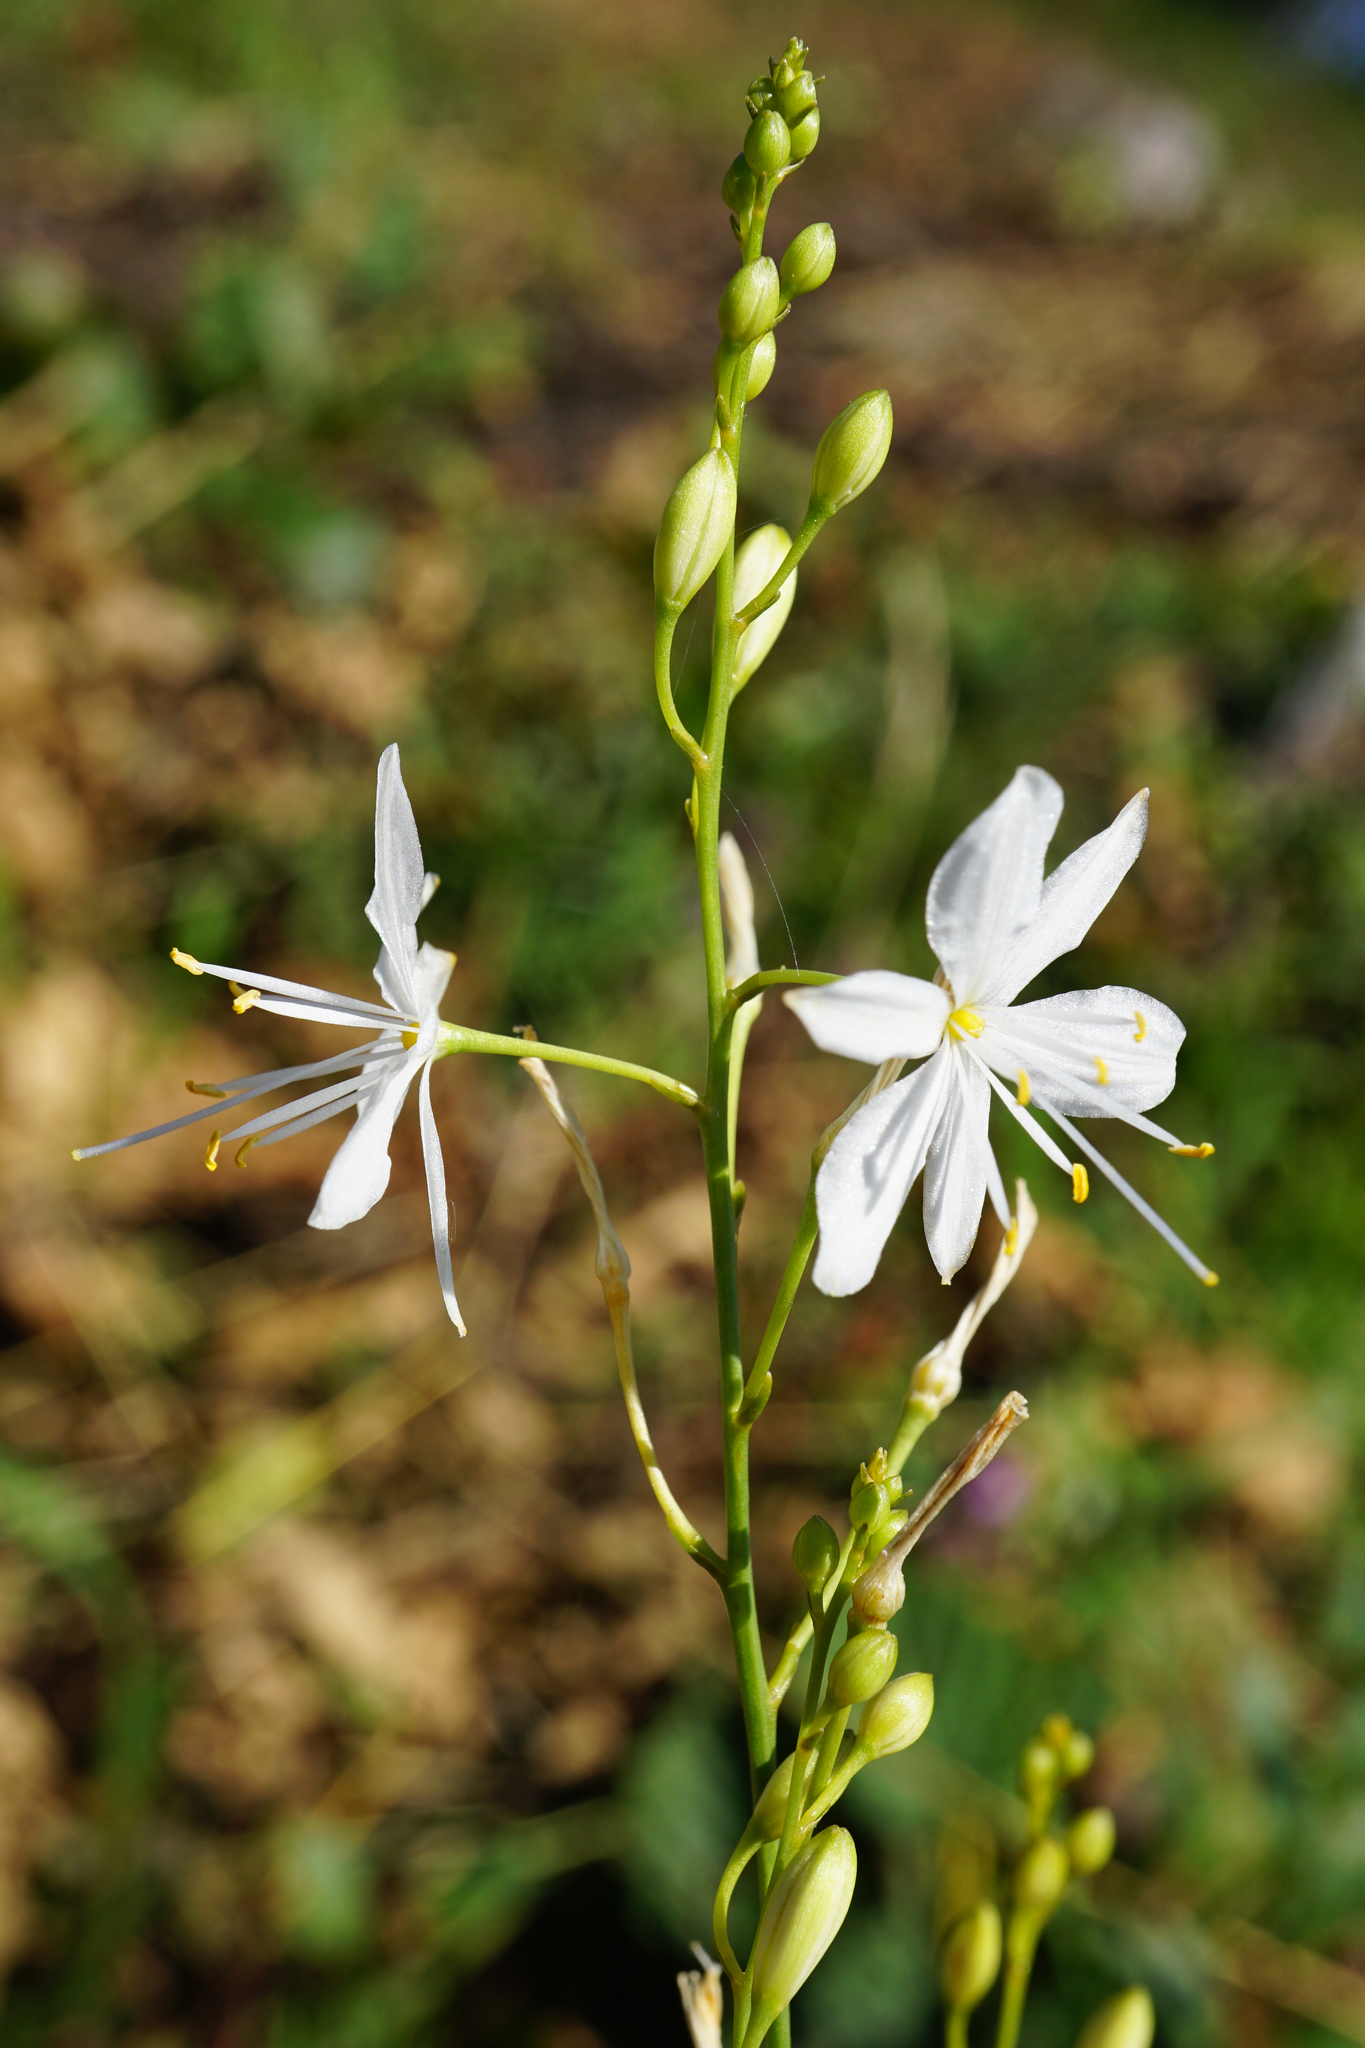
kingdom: Plantae
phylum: Tracheophyta
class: Liliopsida
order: Asparagales
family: Asparagaceae
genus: Anthericum
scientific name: Anthericum ramosum
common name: Branched st. bernard's-lily
